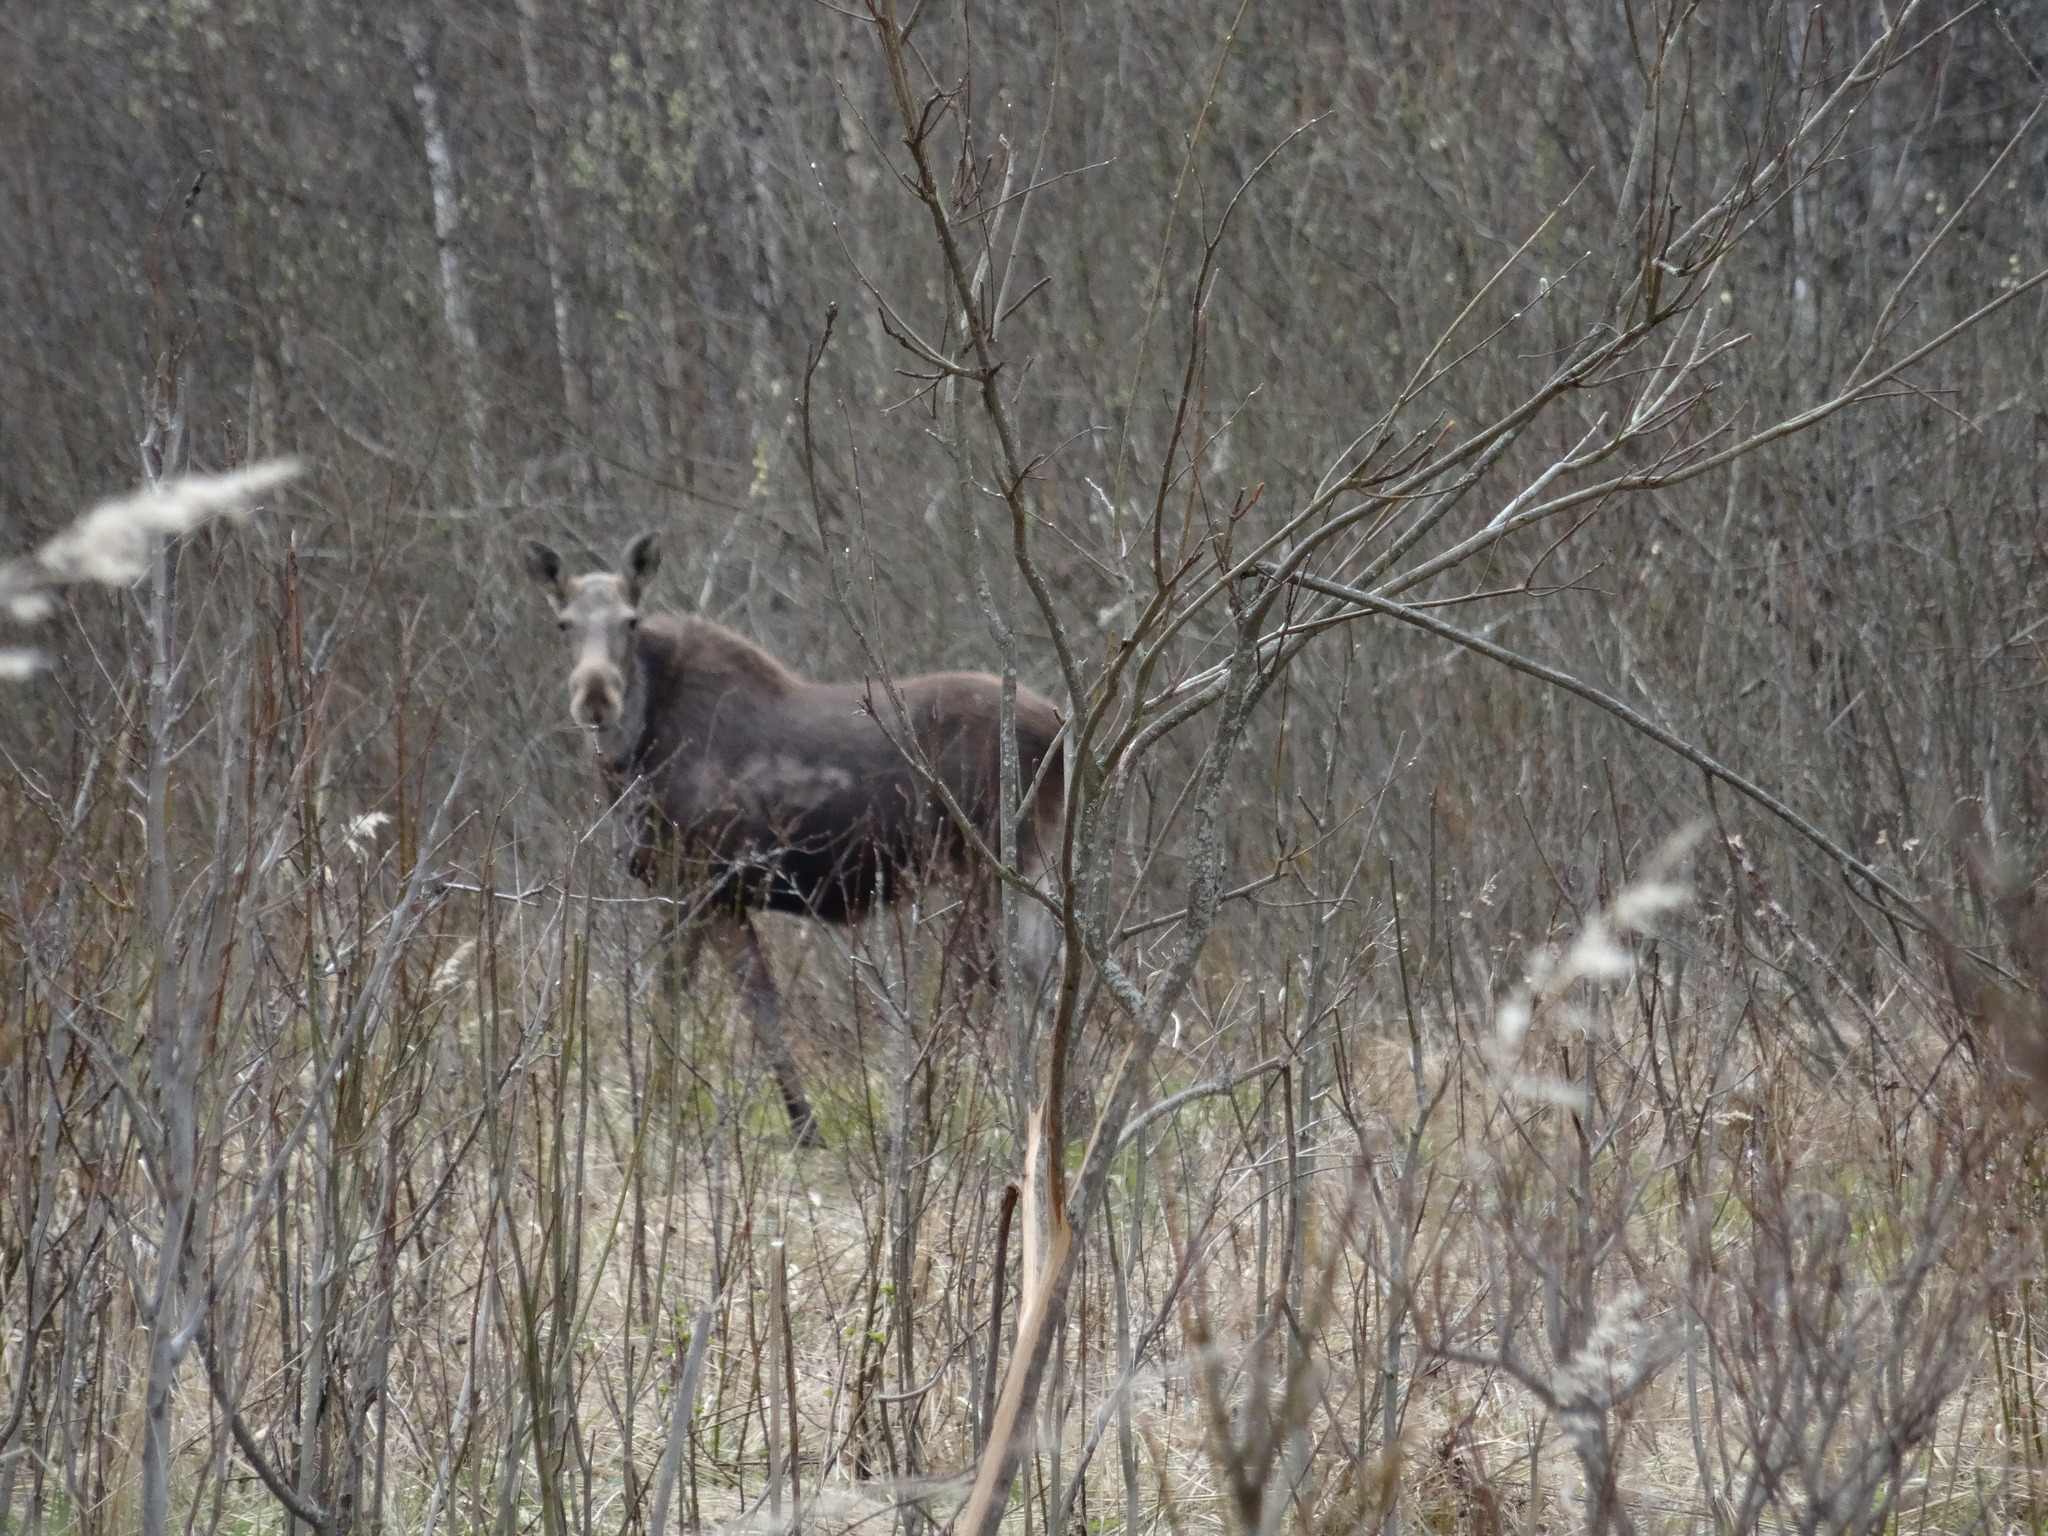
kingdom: Animalia
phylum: Chordata
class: Mammalia
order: Artiodactyla
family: Cervidae
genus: Alces
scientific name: Alces alces
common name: Moose
